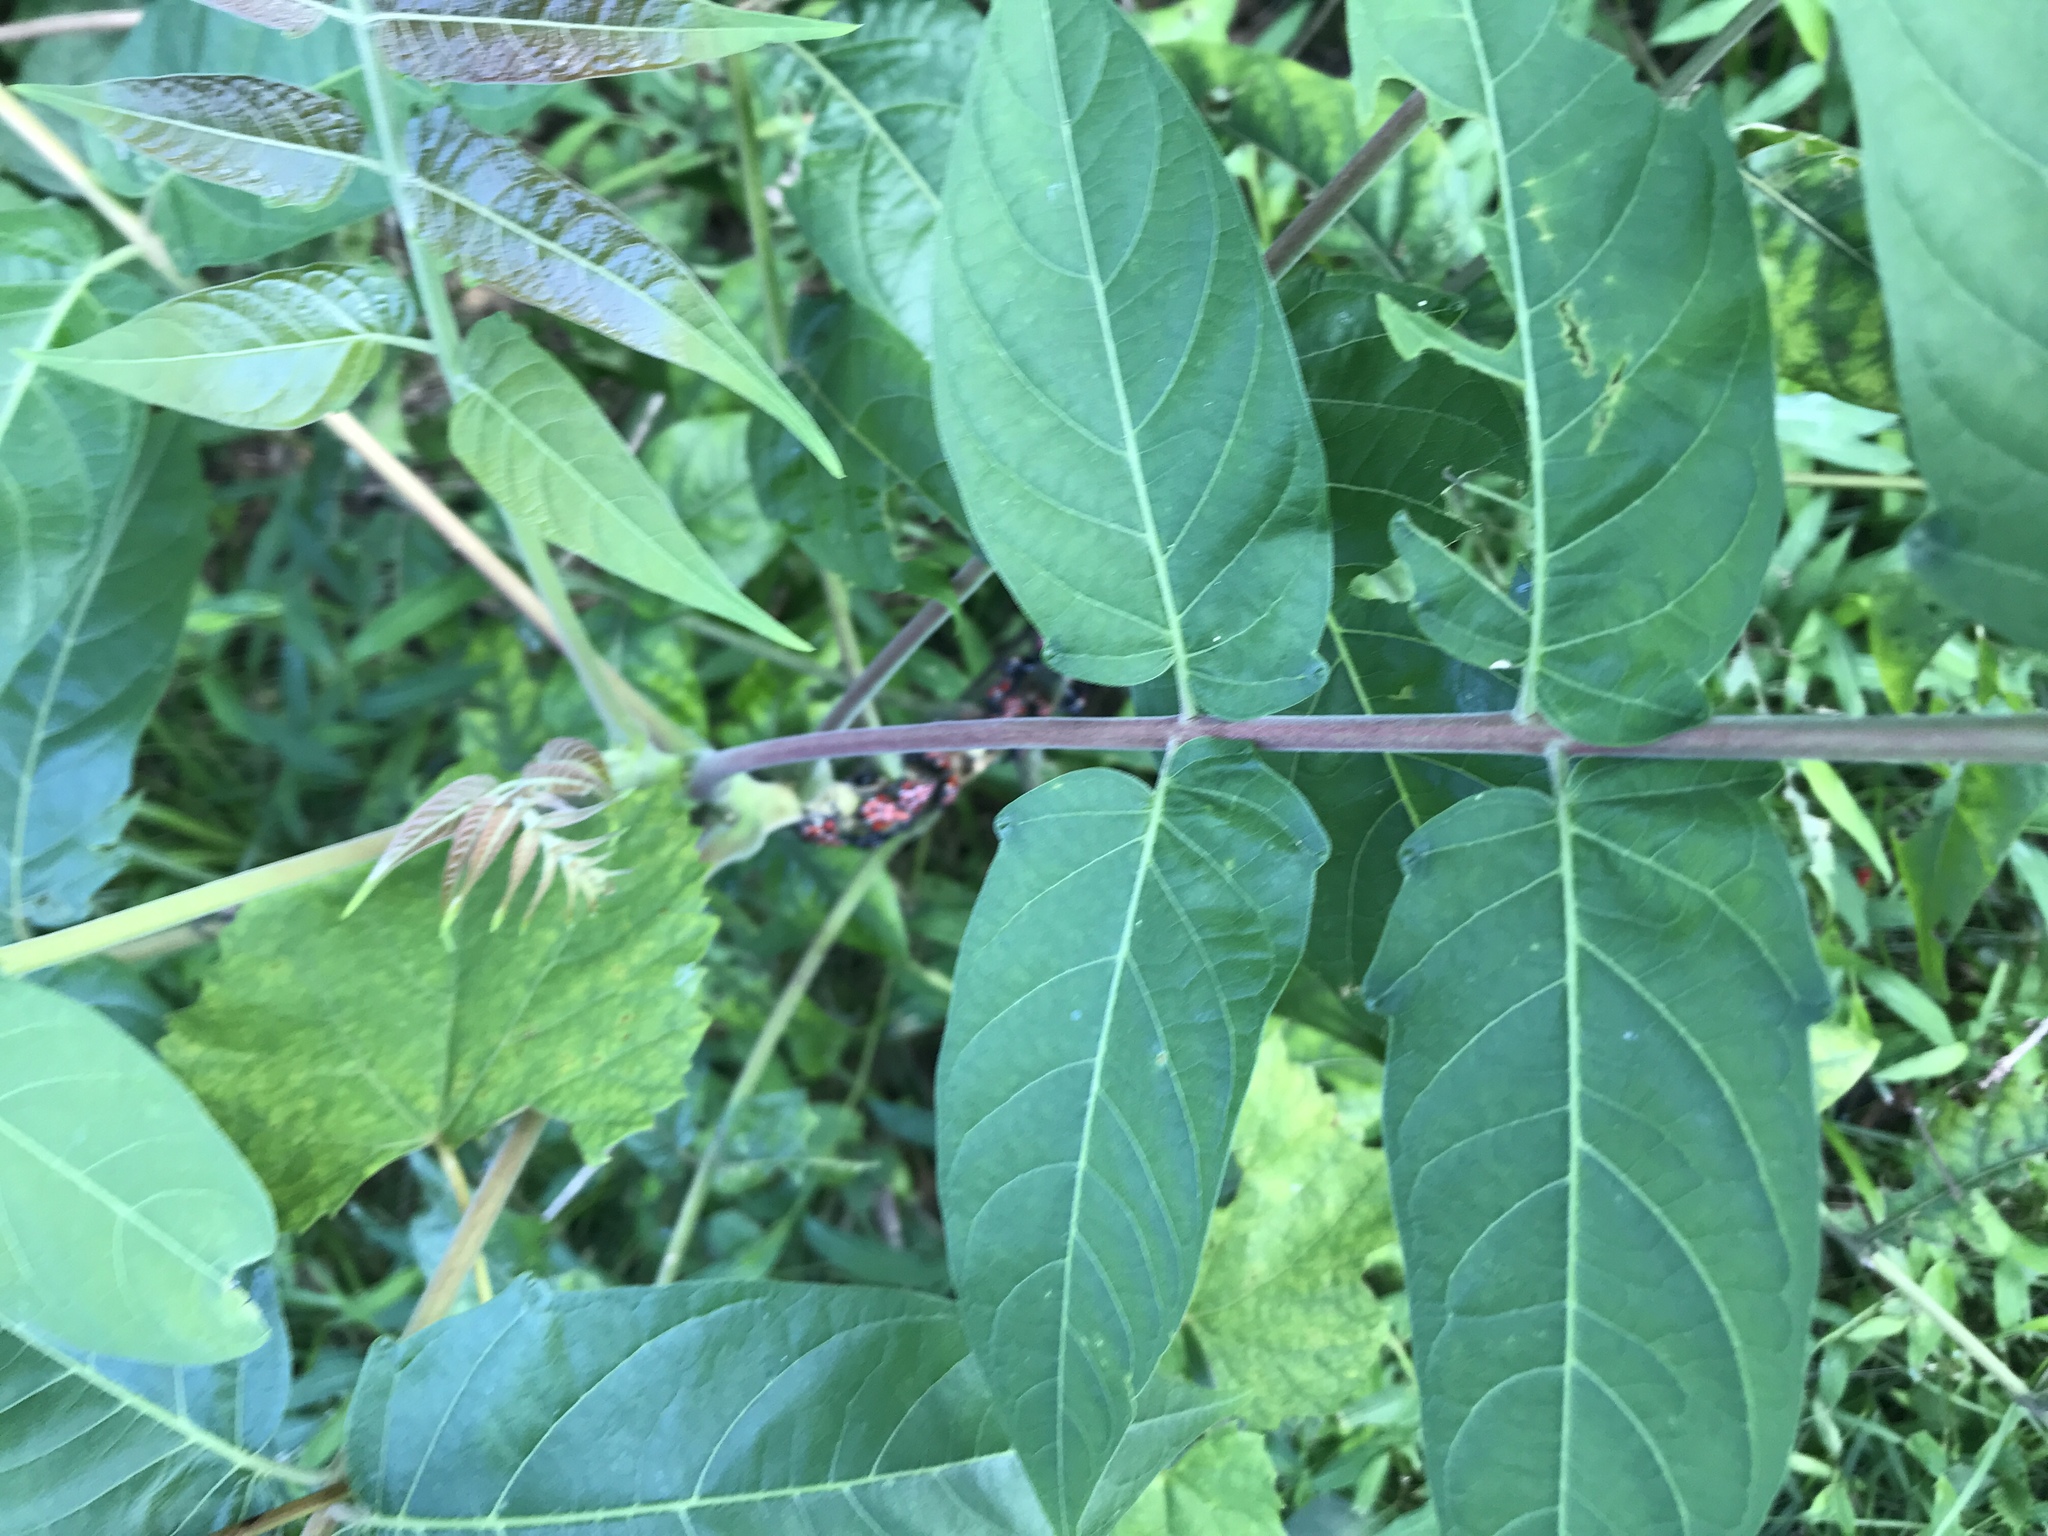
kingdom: Plantae
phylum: Tracheophyta
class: Magnoliopsida
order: Sapindales
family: Simaroubaceae
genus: Ailanthus
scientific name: Ailanthus altissima
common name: Tree-of-heaven
